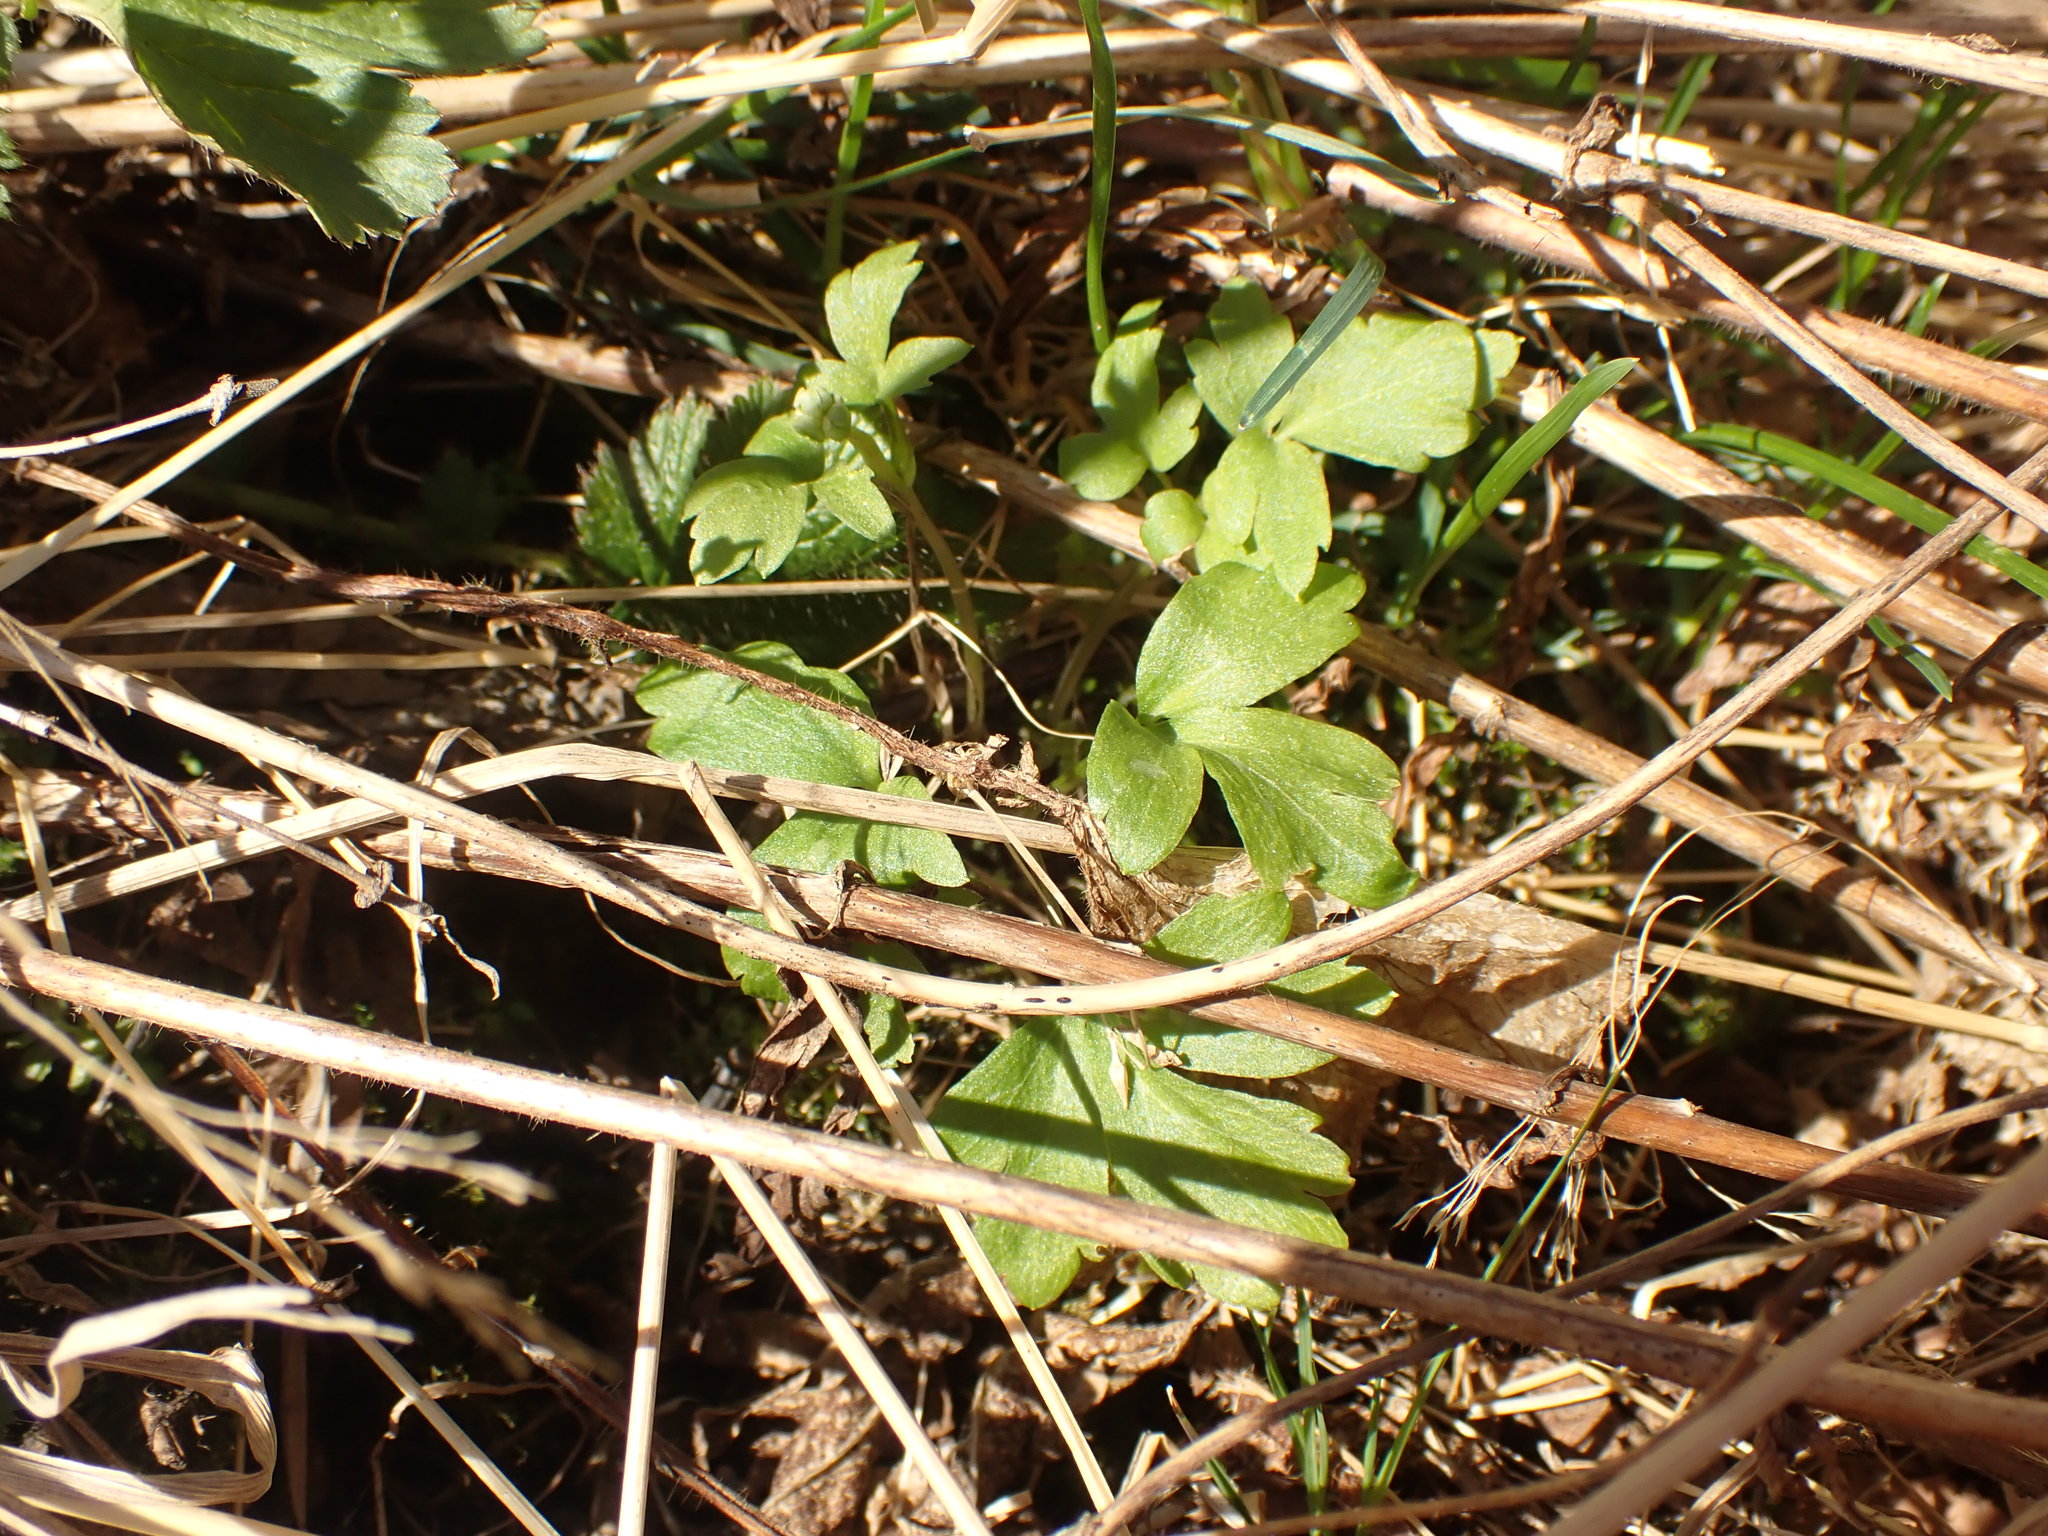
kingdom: Plantae
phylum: Tracheophyta
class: Magnoliopsida
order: Dipsacales
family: Viburnaceae
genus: Adoxa
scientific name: Adoxa moschatellina
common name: Moschatel
